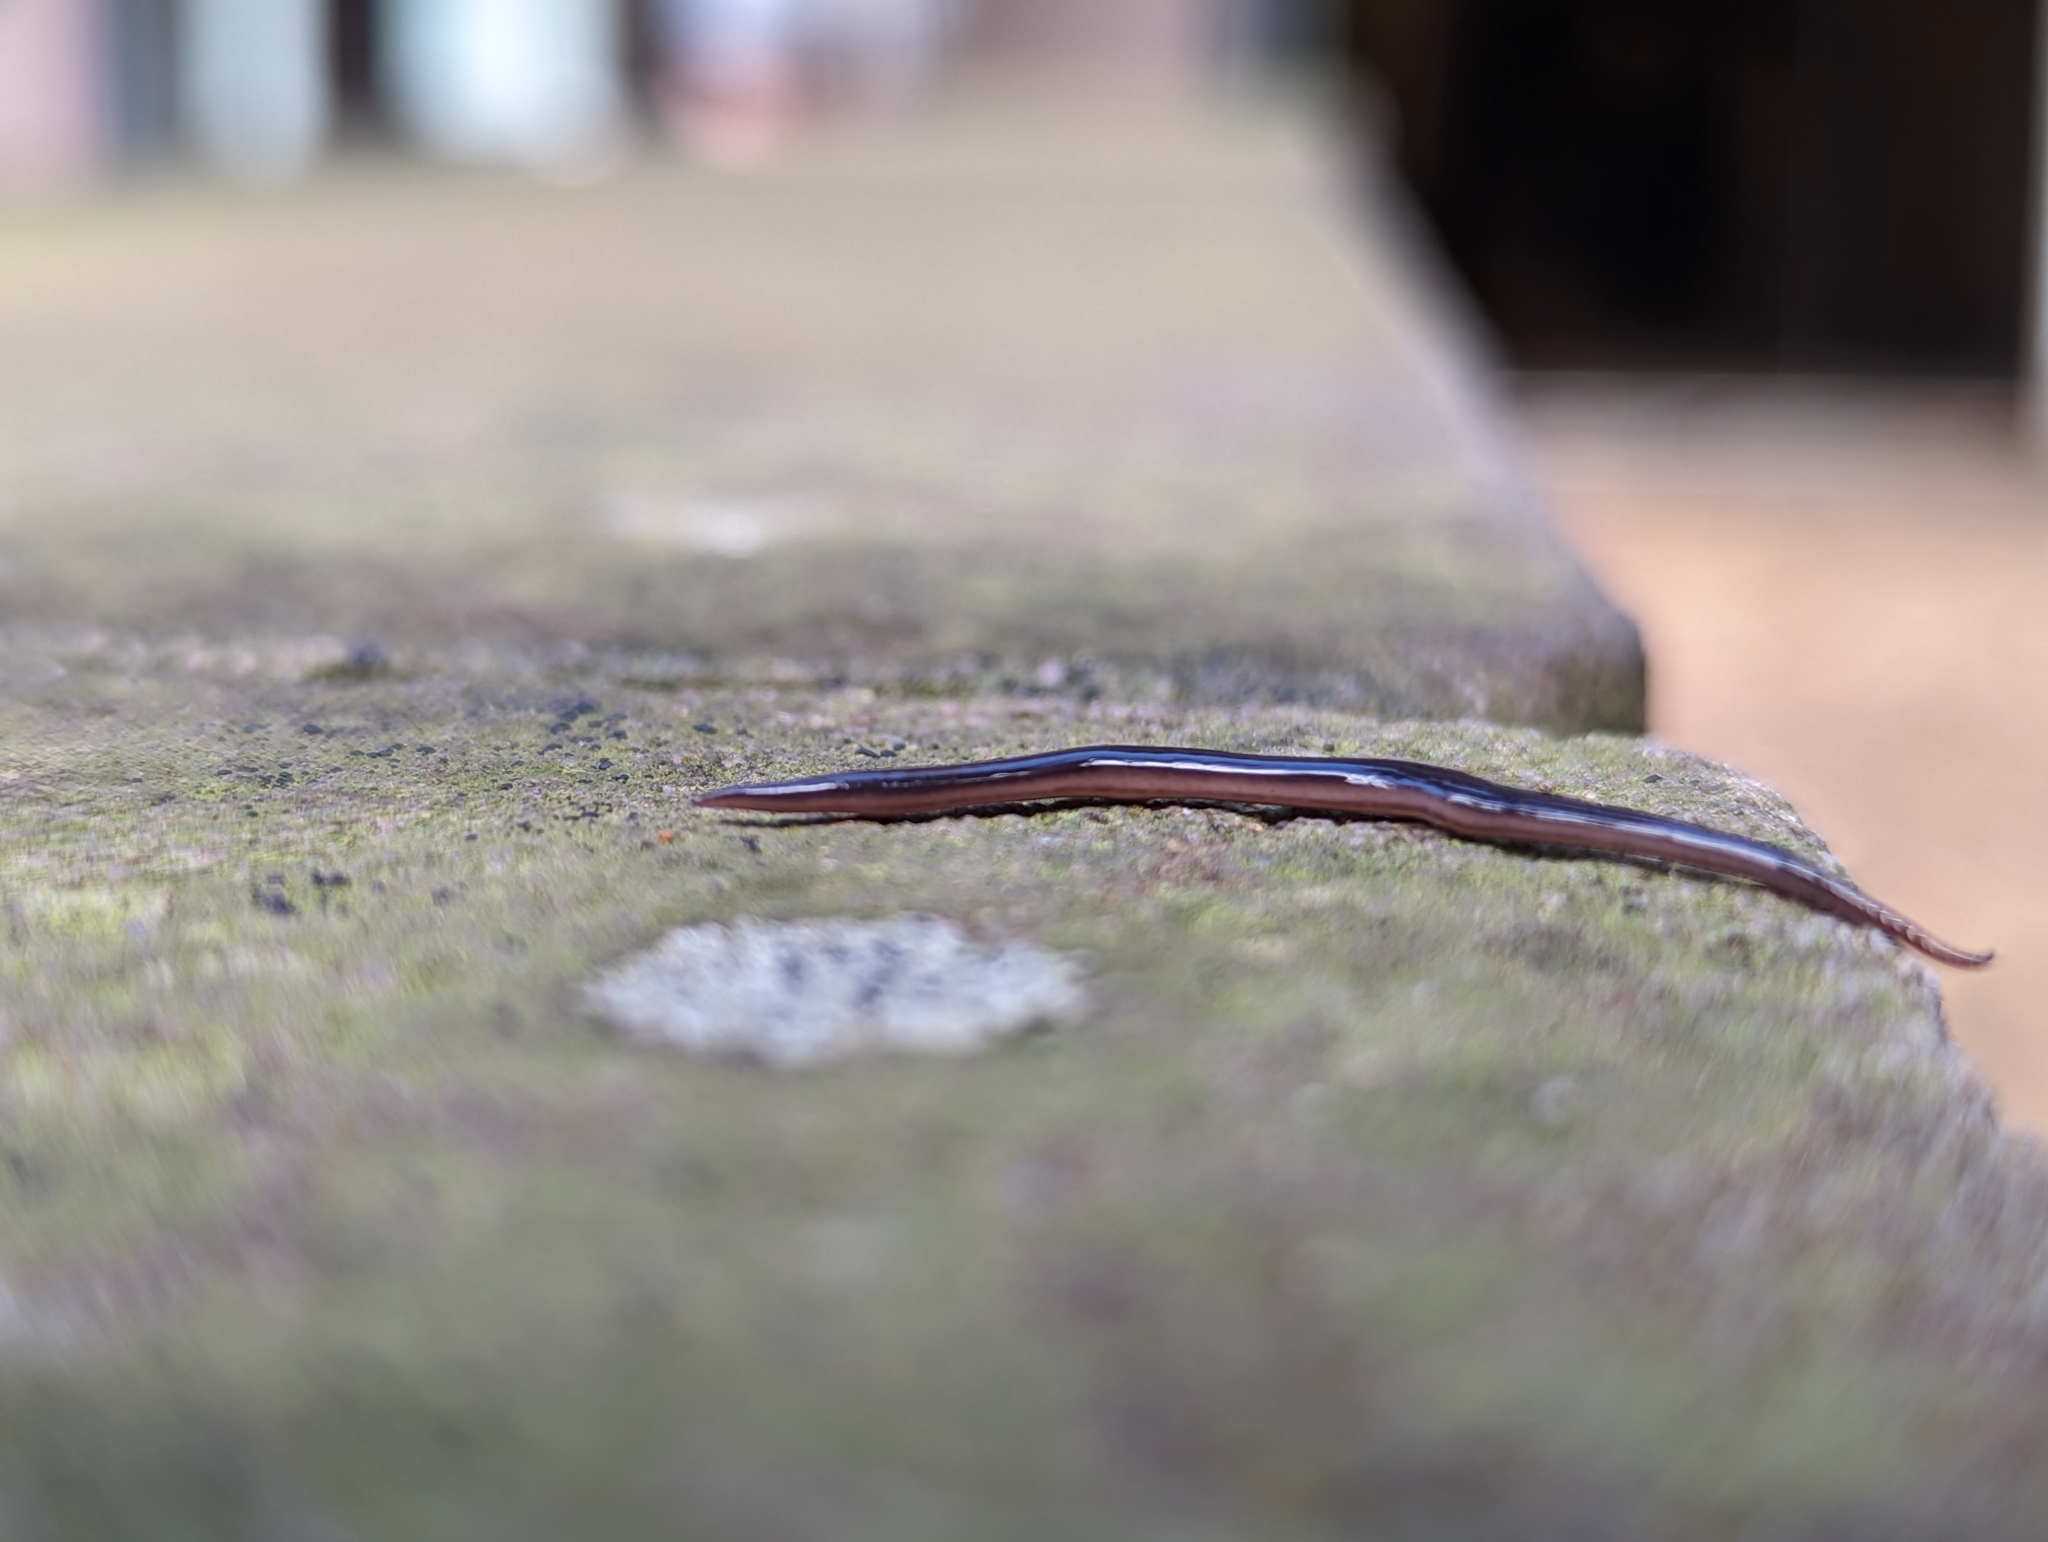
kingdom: Animalia
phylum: Platyhelminthes
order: Tricladida
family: Geoplanidae
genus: Caenoplana
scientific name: Caenoplana coerulea
